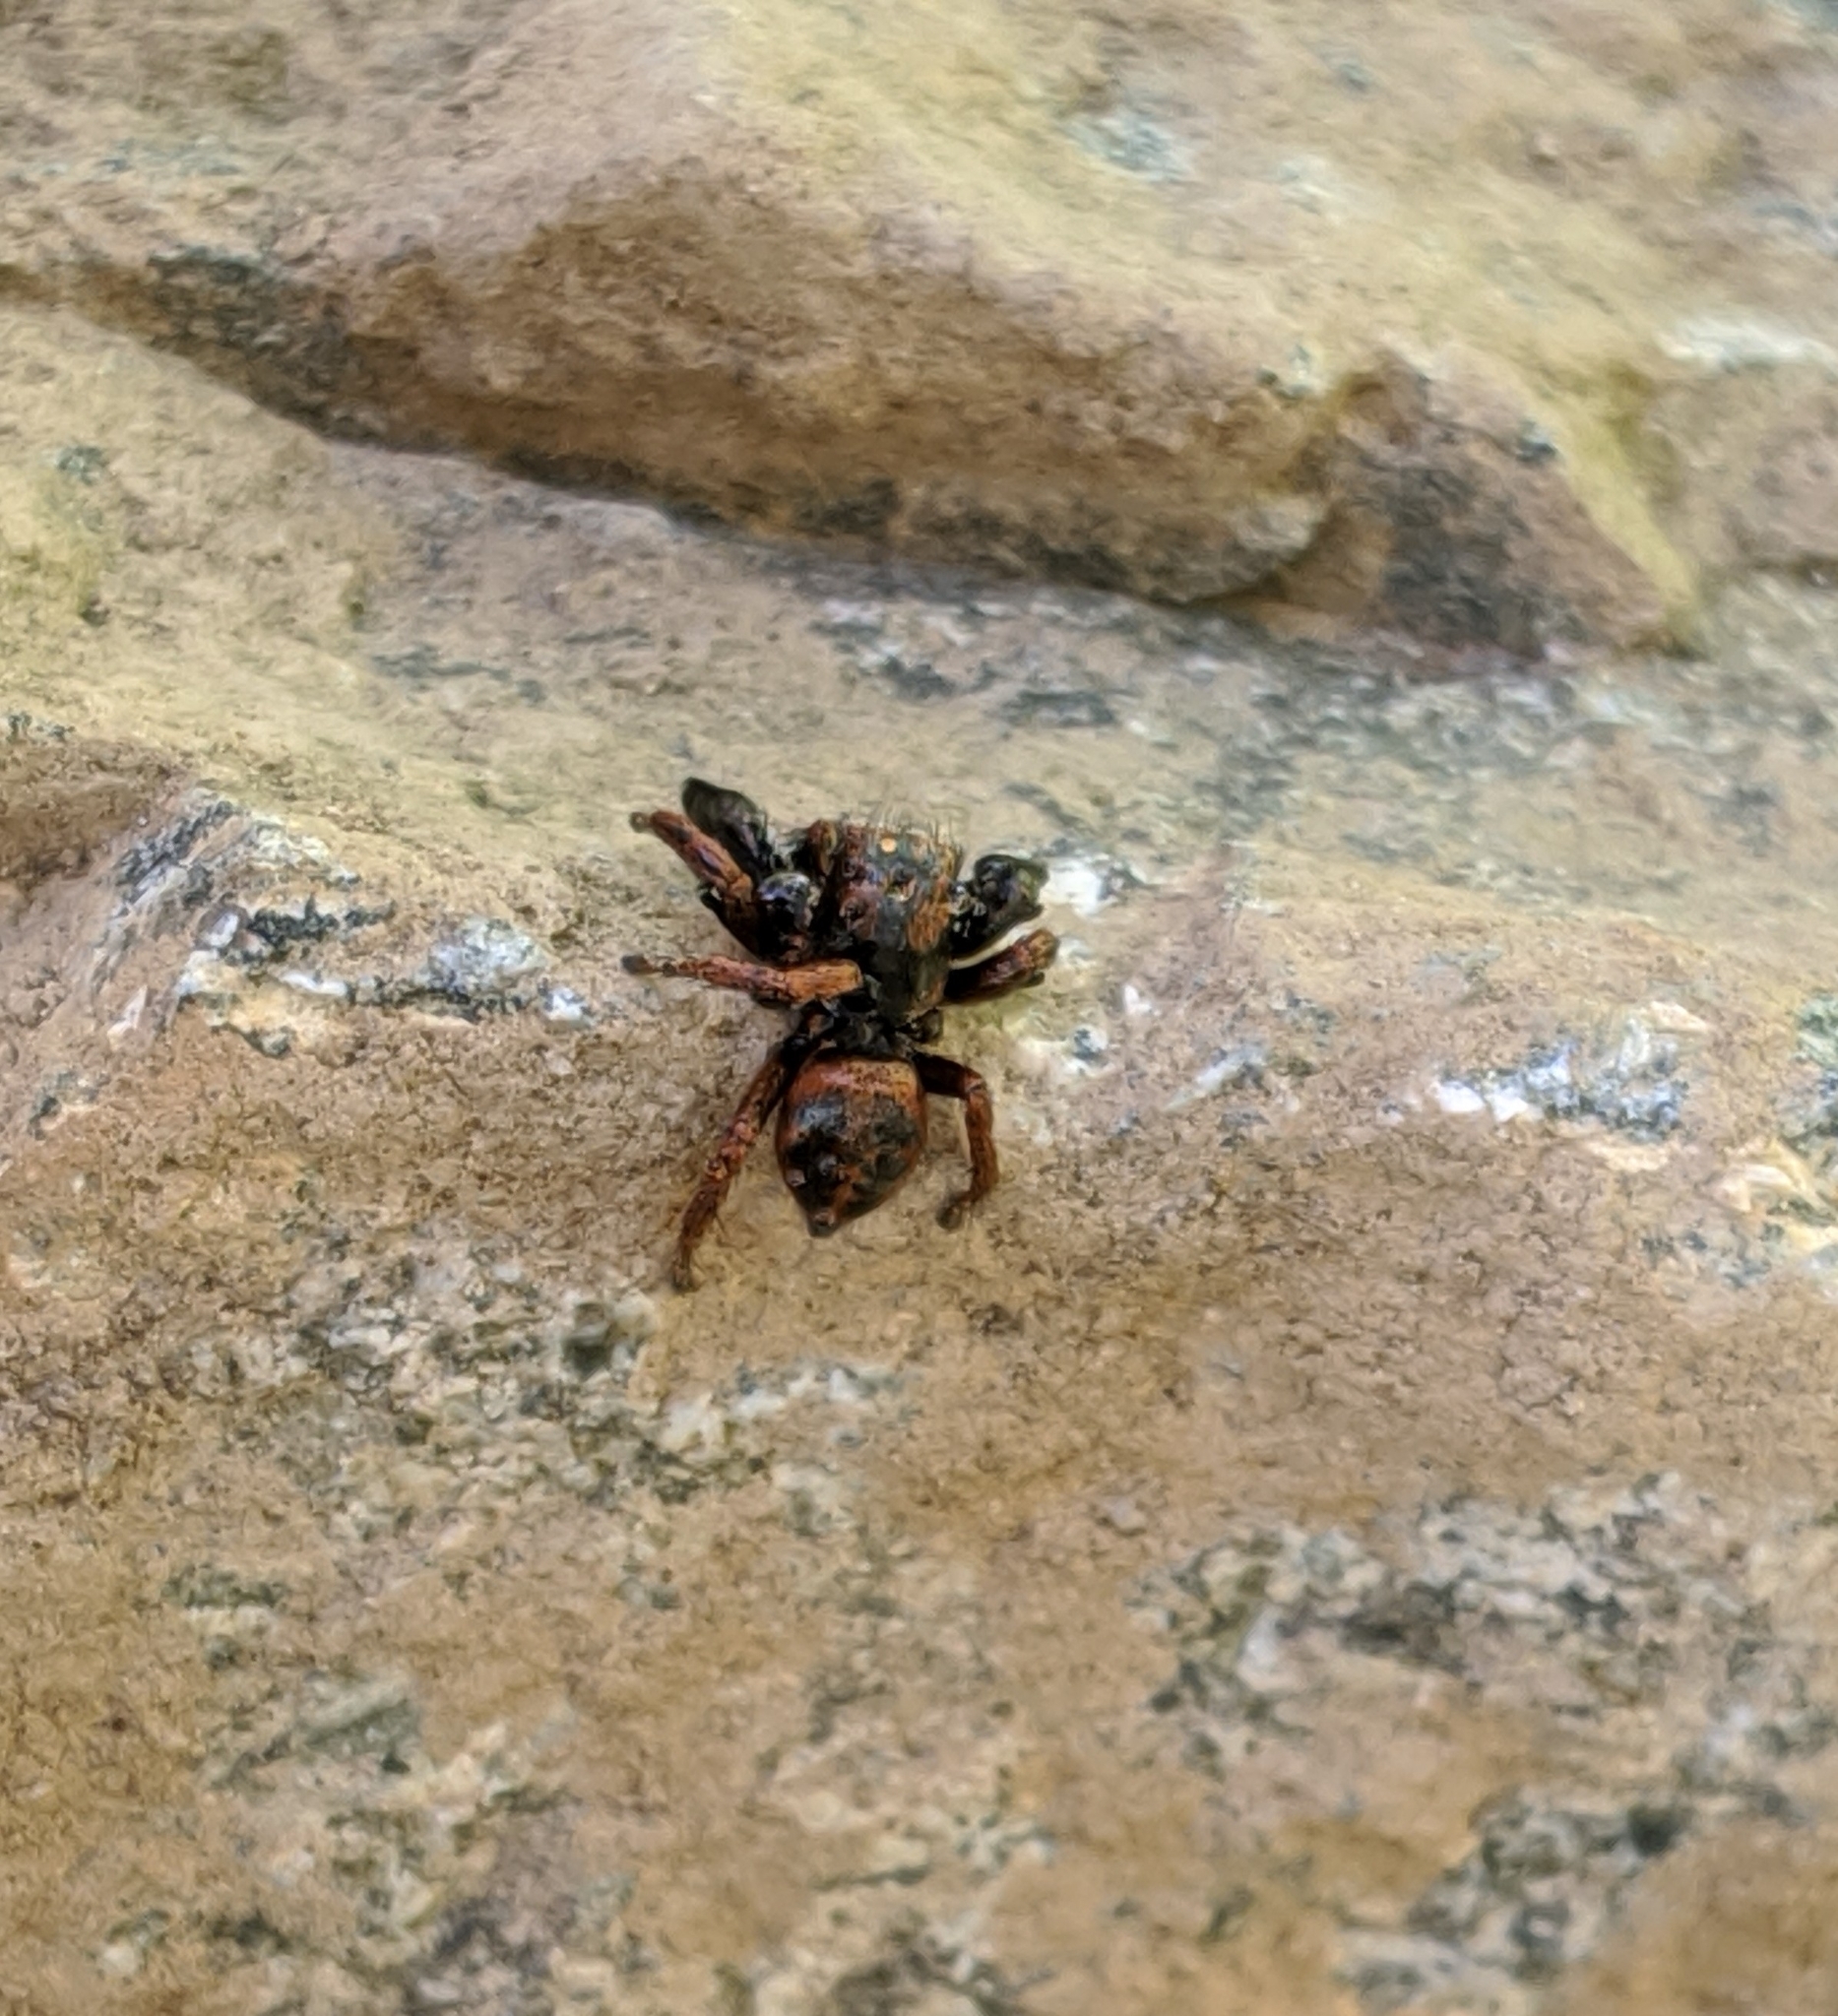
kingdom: Animalia
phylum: Arthropoda
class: Arachnida
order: Araneae
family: Salticidae
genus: Habronattus
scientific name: Habronattus oregonensis
